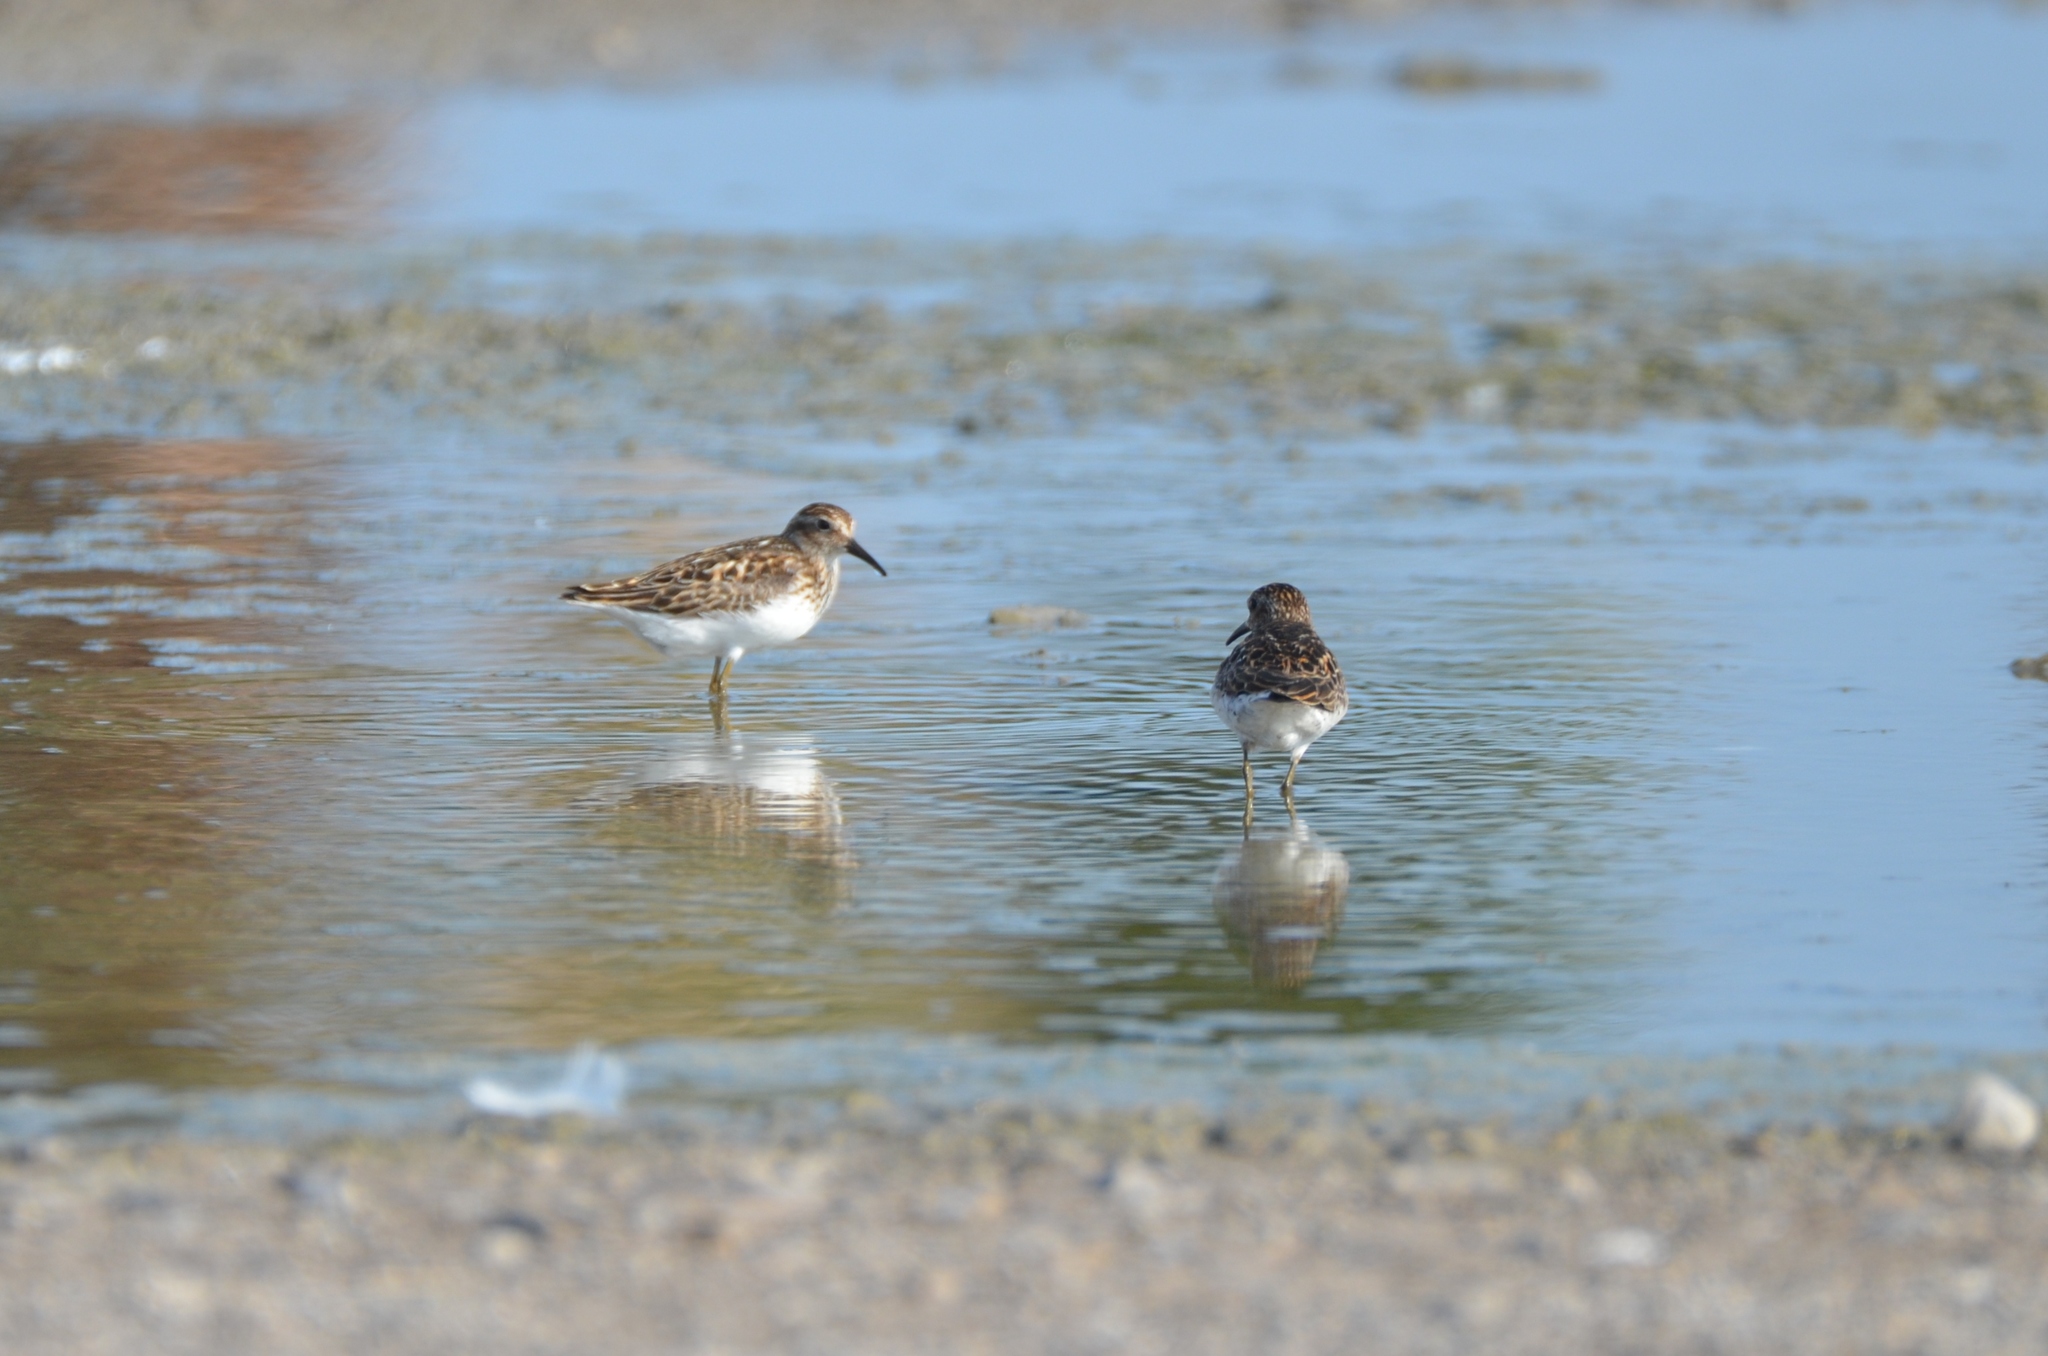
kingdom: Animalia
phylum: Chordata
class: Aves
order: Charadriiformes
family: Scolopacidae
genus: Calidris
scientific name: Calidris minutilla
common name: Least sandpiper
